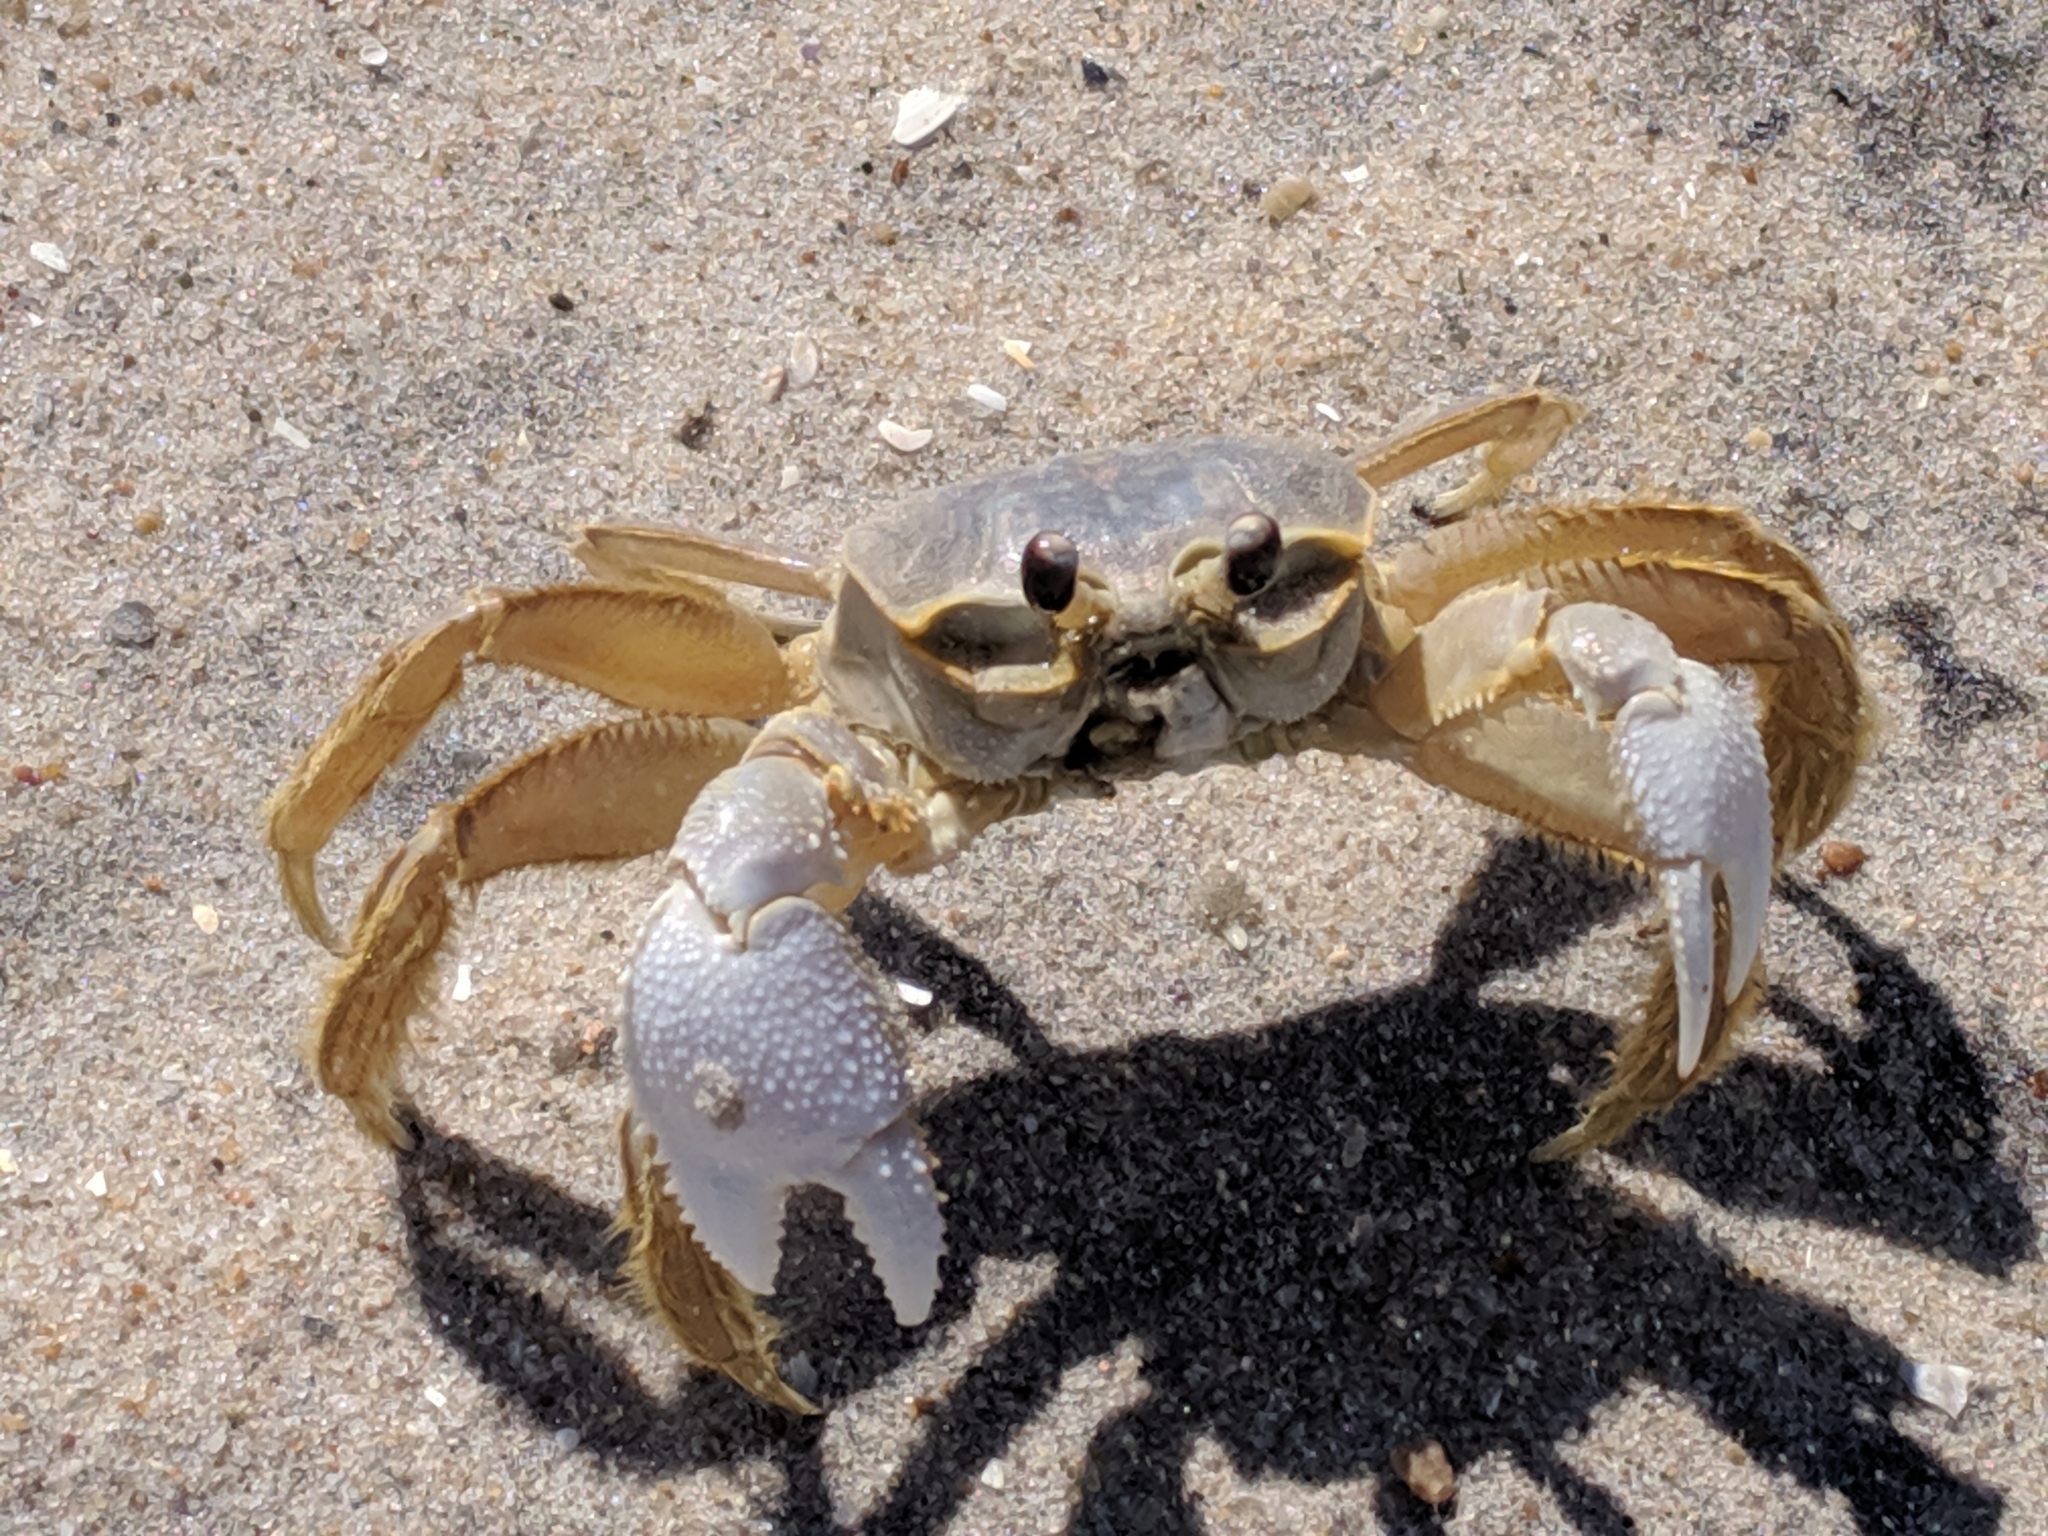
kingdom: Animalia
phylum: Arthropoda
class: Malacostraca
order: Decapoda
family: Ocypodidae
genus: Ocypode
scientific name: Ocypode quadrata
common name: Ghost crab
